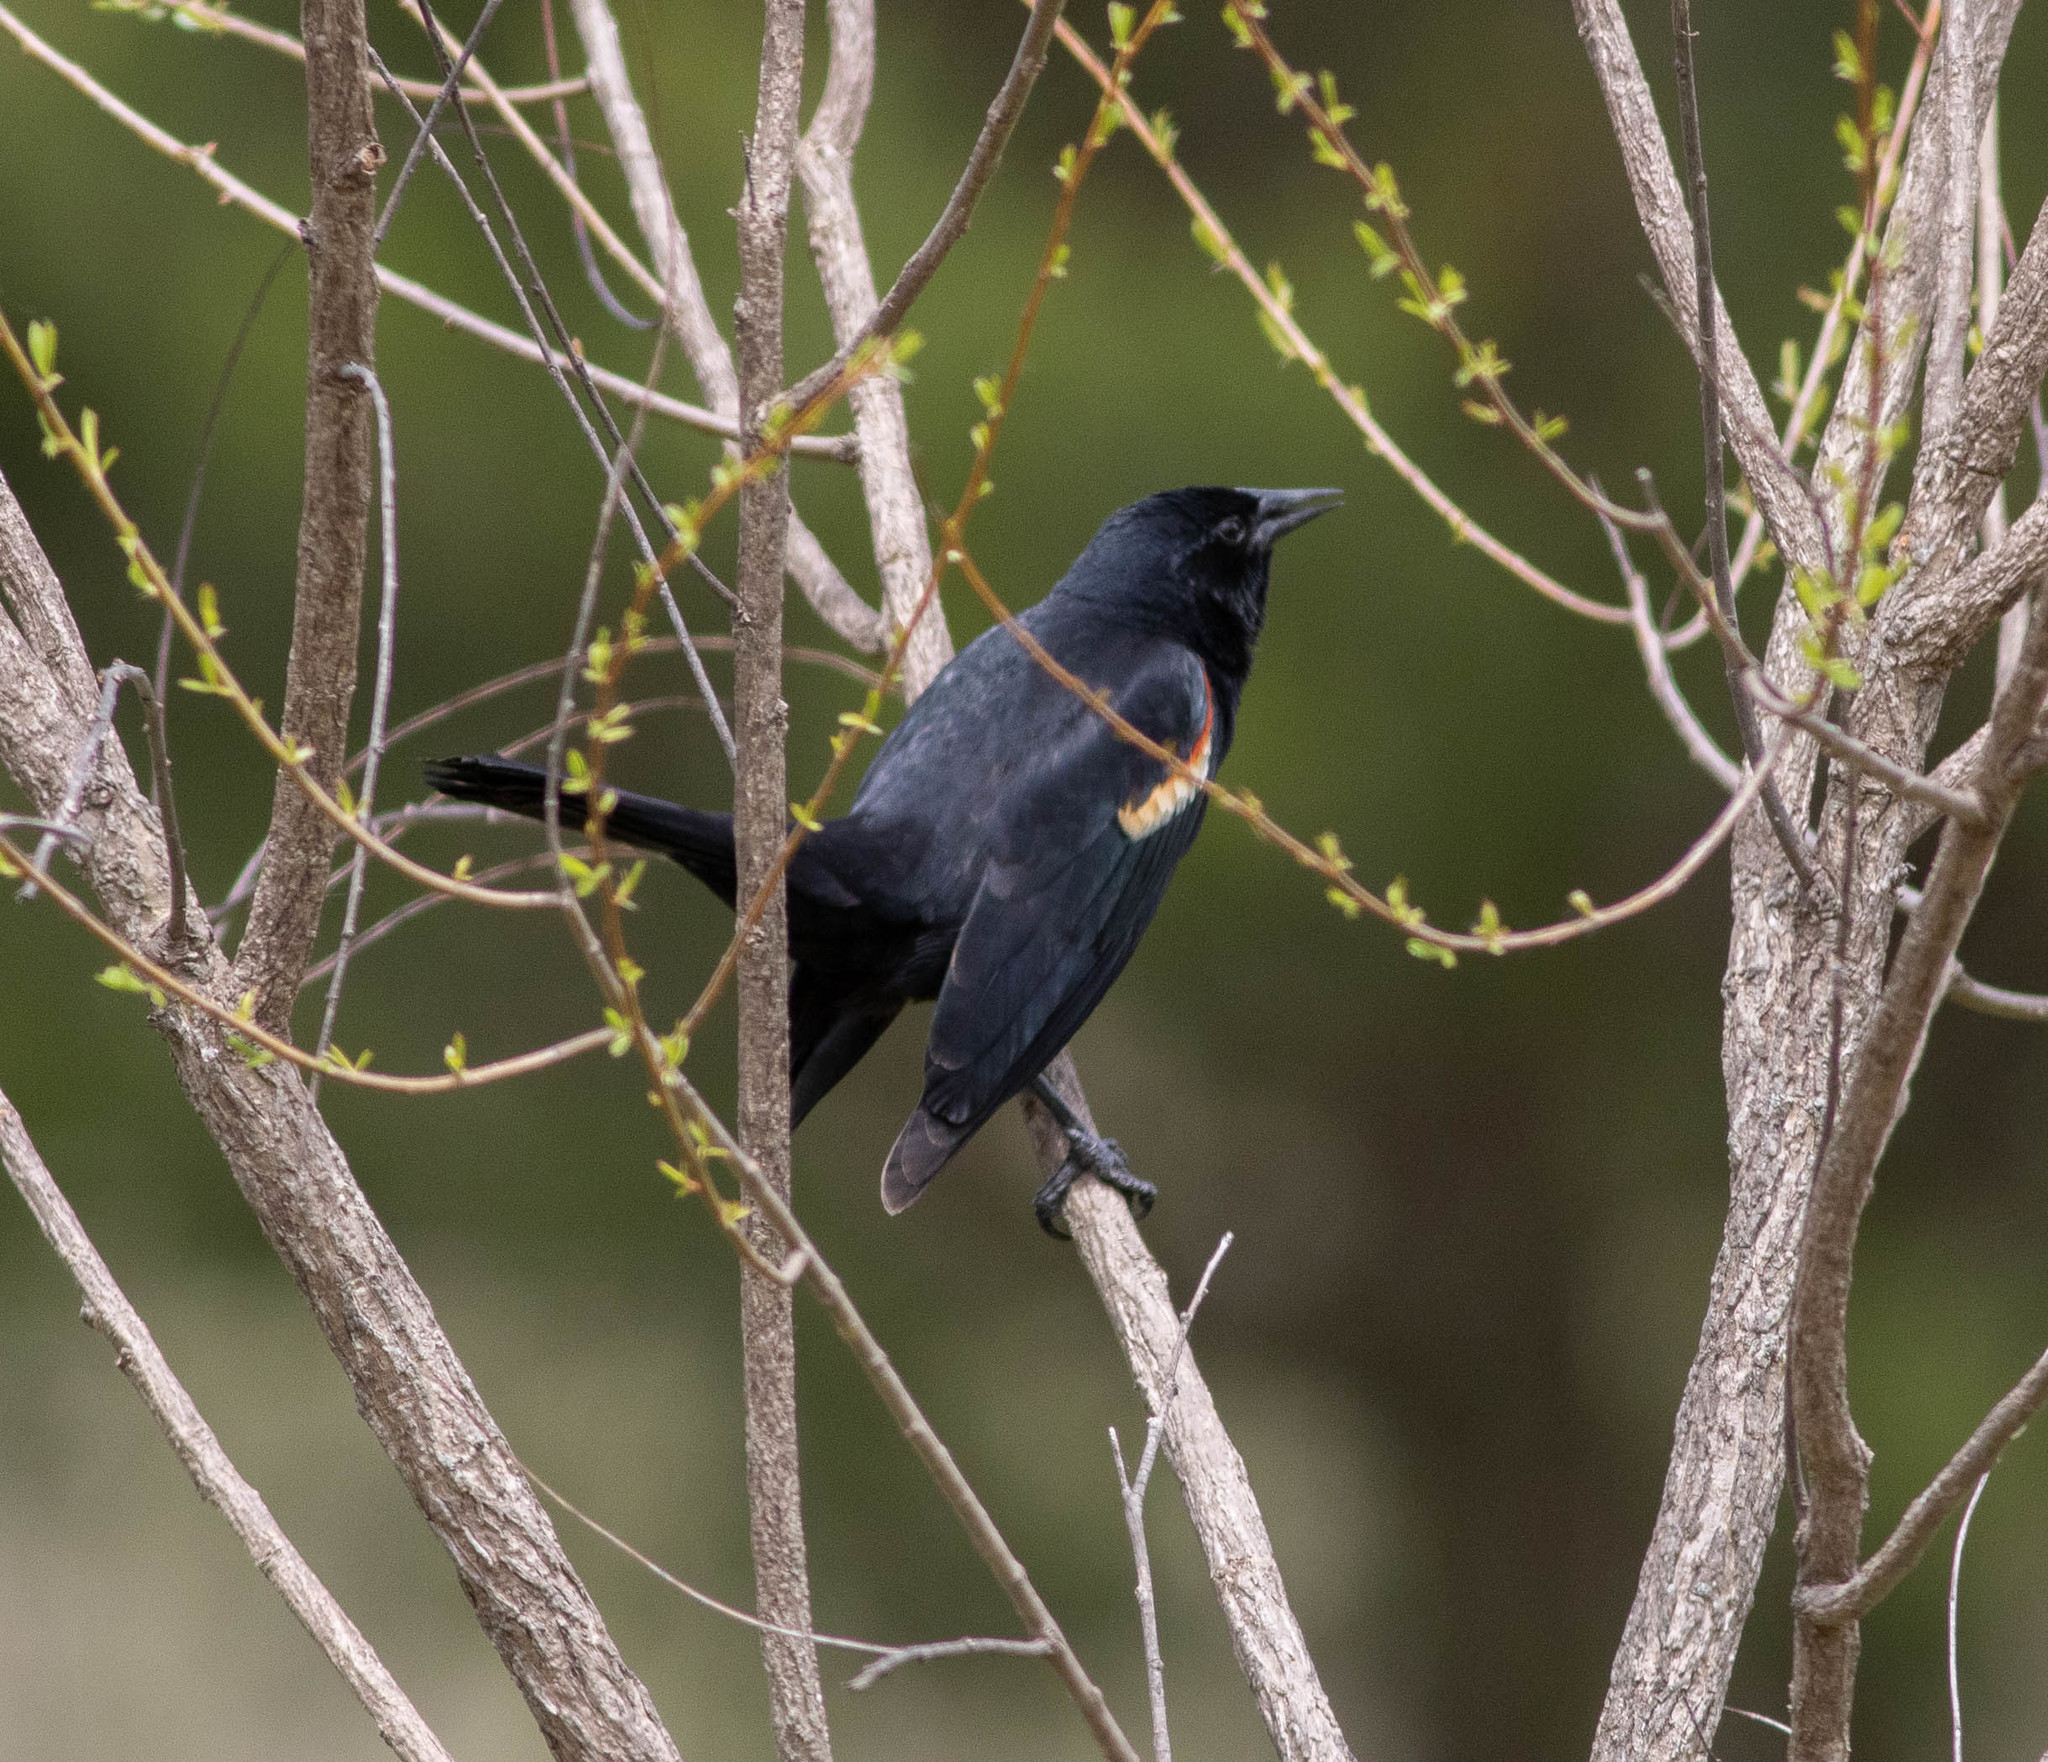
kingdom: Animalia
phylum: Chordata
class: Aves
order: Passeriformes
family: Icteridae
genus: Agelaius
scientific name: Agelaius phoeniceus
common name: Red-winged blackbird
